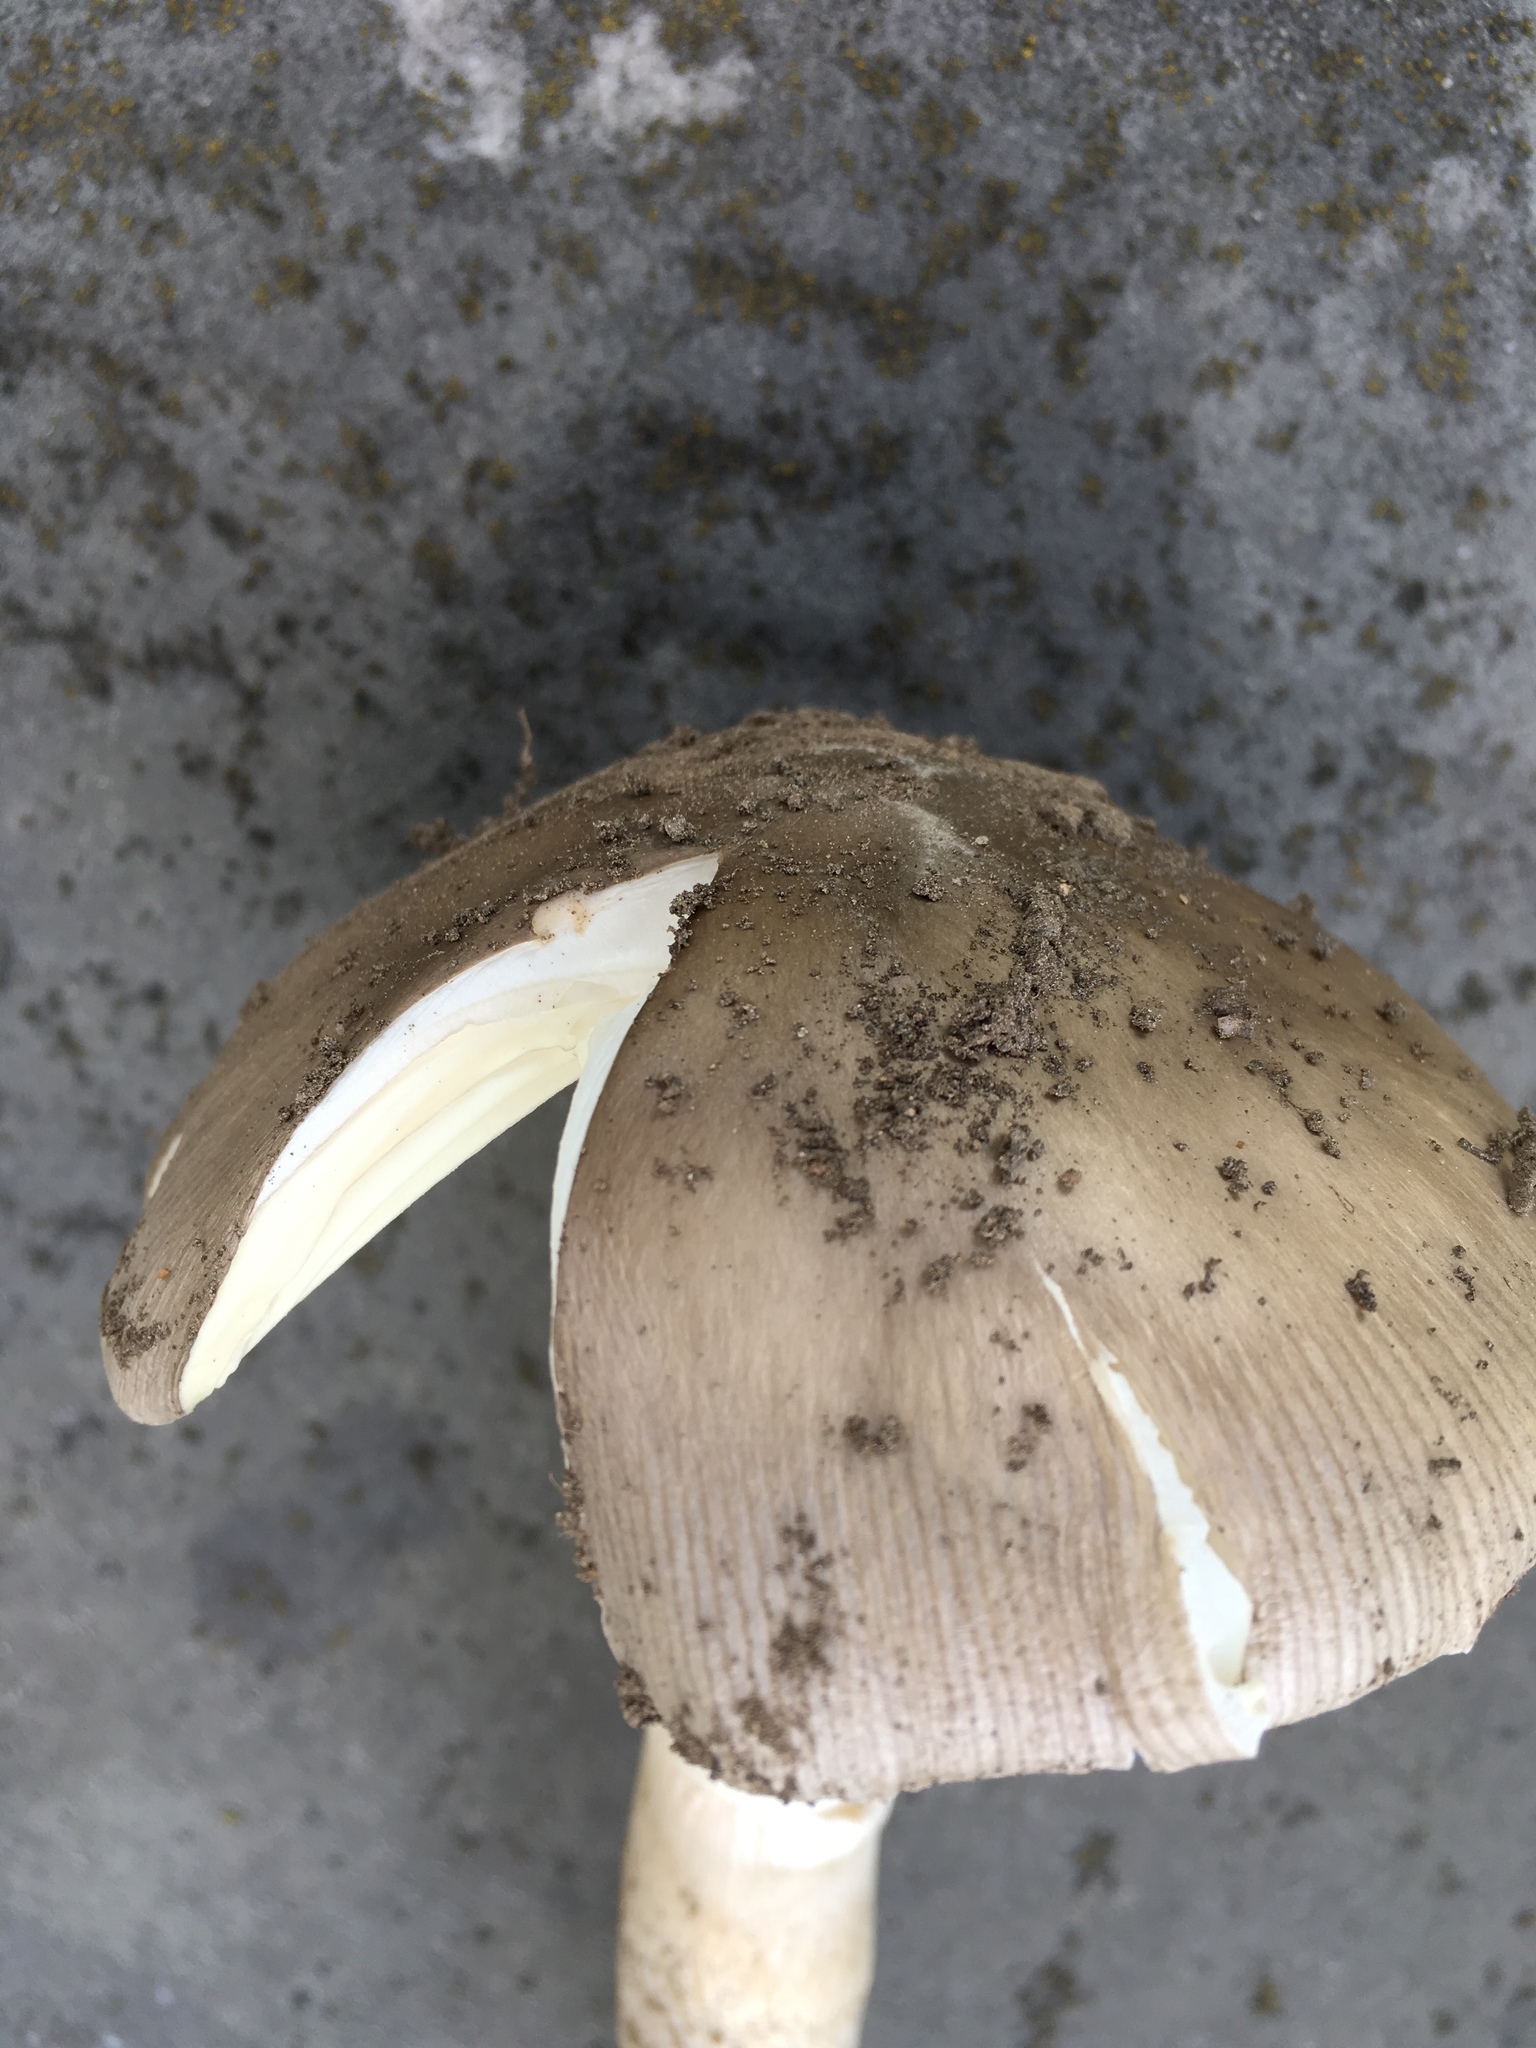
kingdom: Fungi
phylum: Basidiomycota
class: Agaricomycetes
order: Agaricales
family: Amanitaceae
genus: Amanita
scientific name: Amanita spreta
